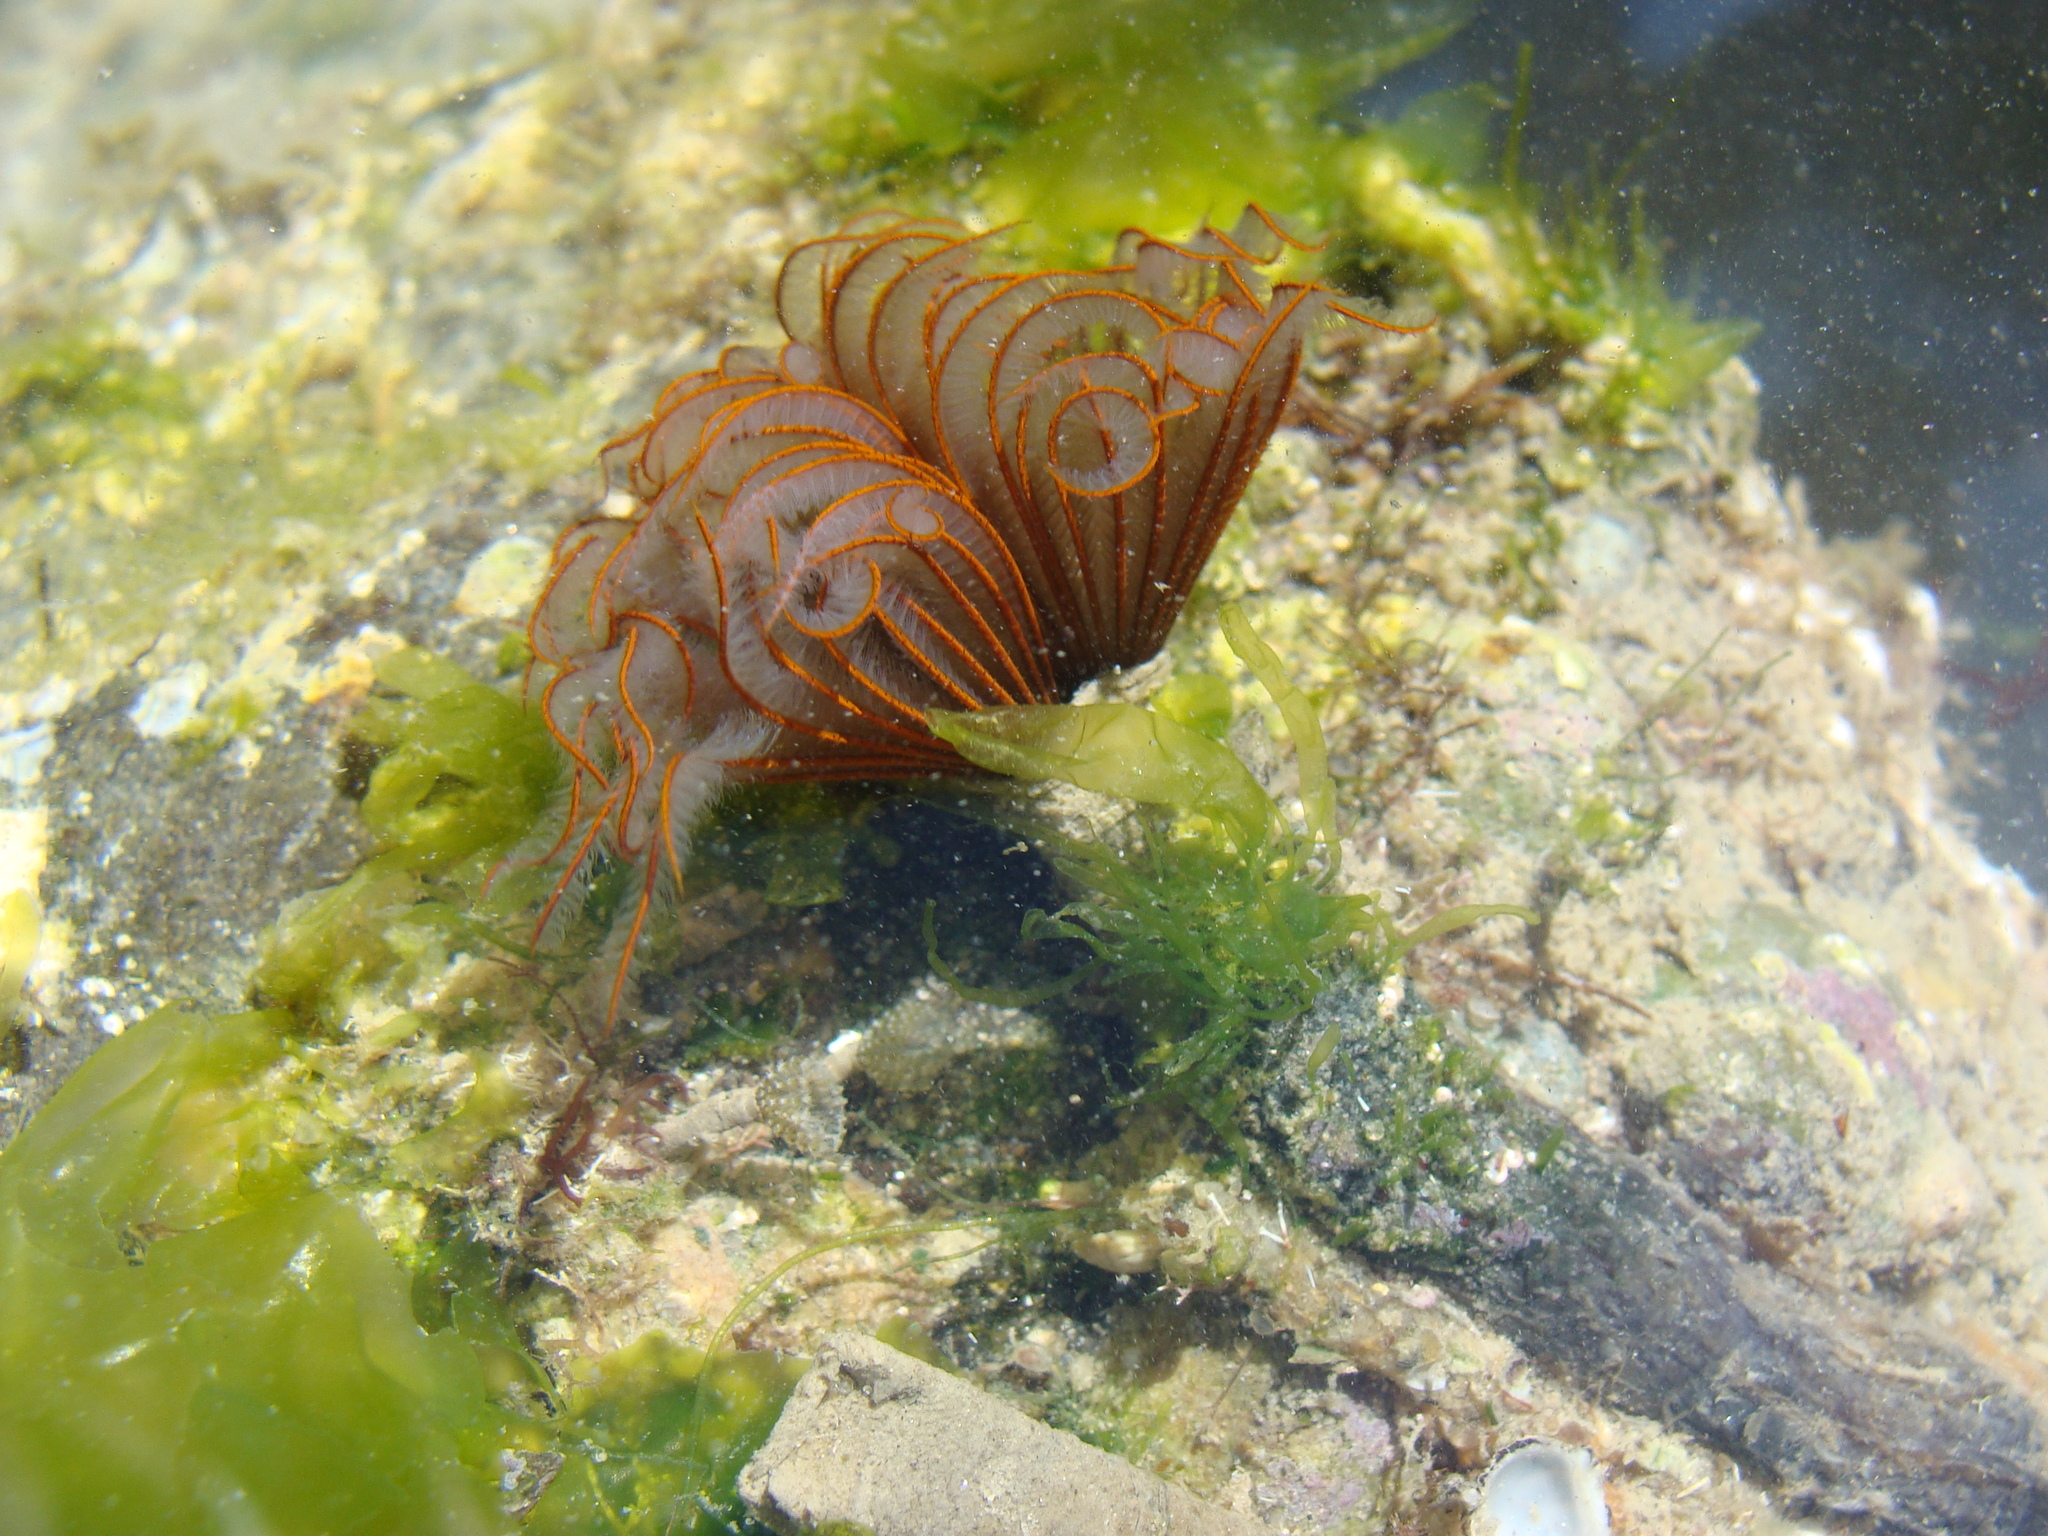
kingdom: Animalia
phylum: Annelida
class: Polychaeta
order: Sabellida
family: Sabellidae
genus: Branchiomma
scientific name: Branchiomma luctuosum
